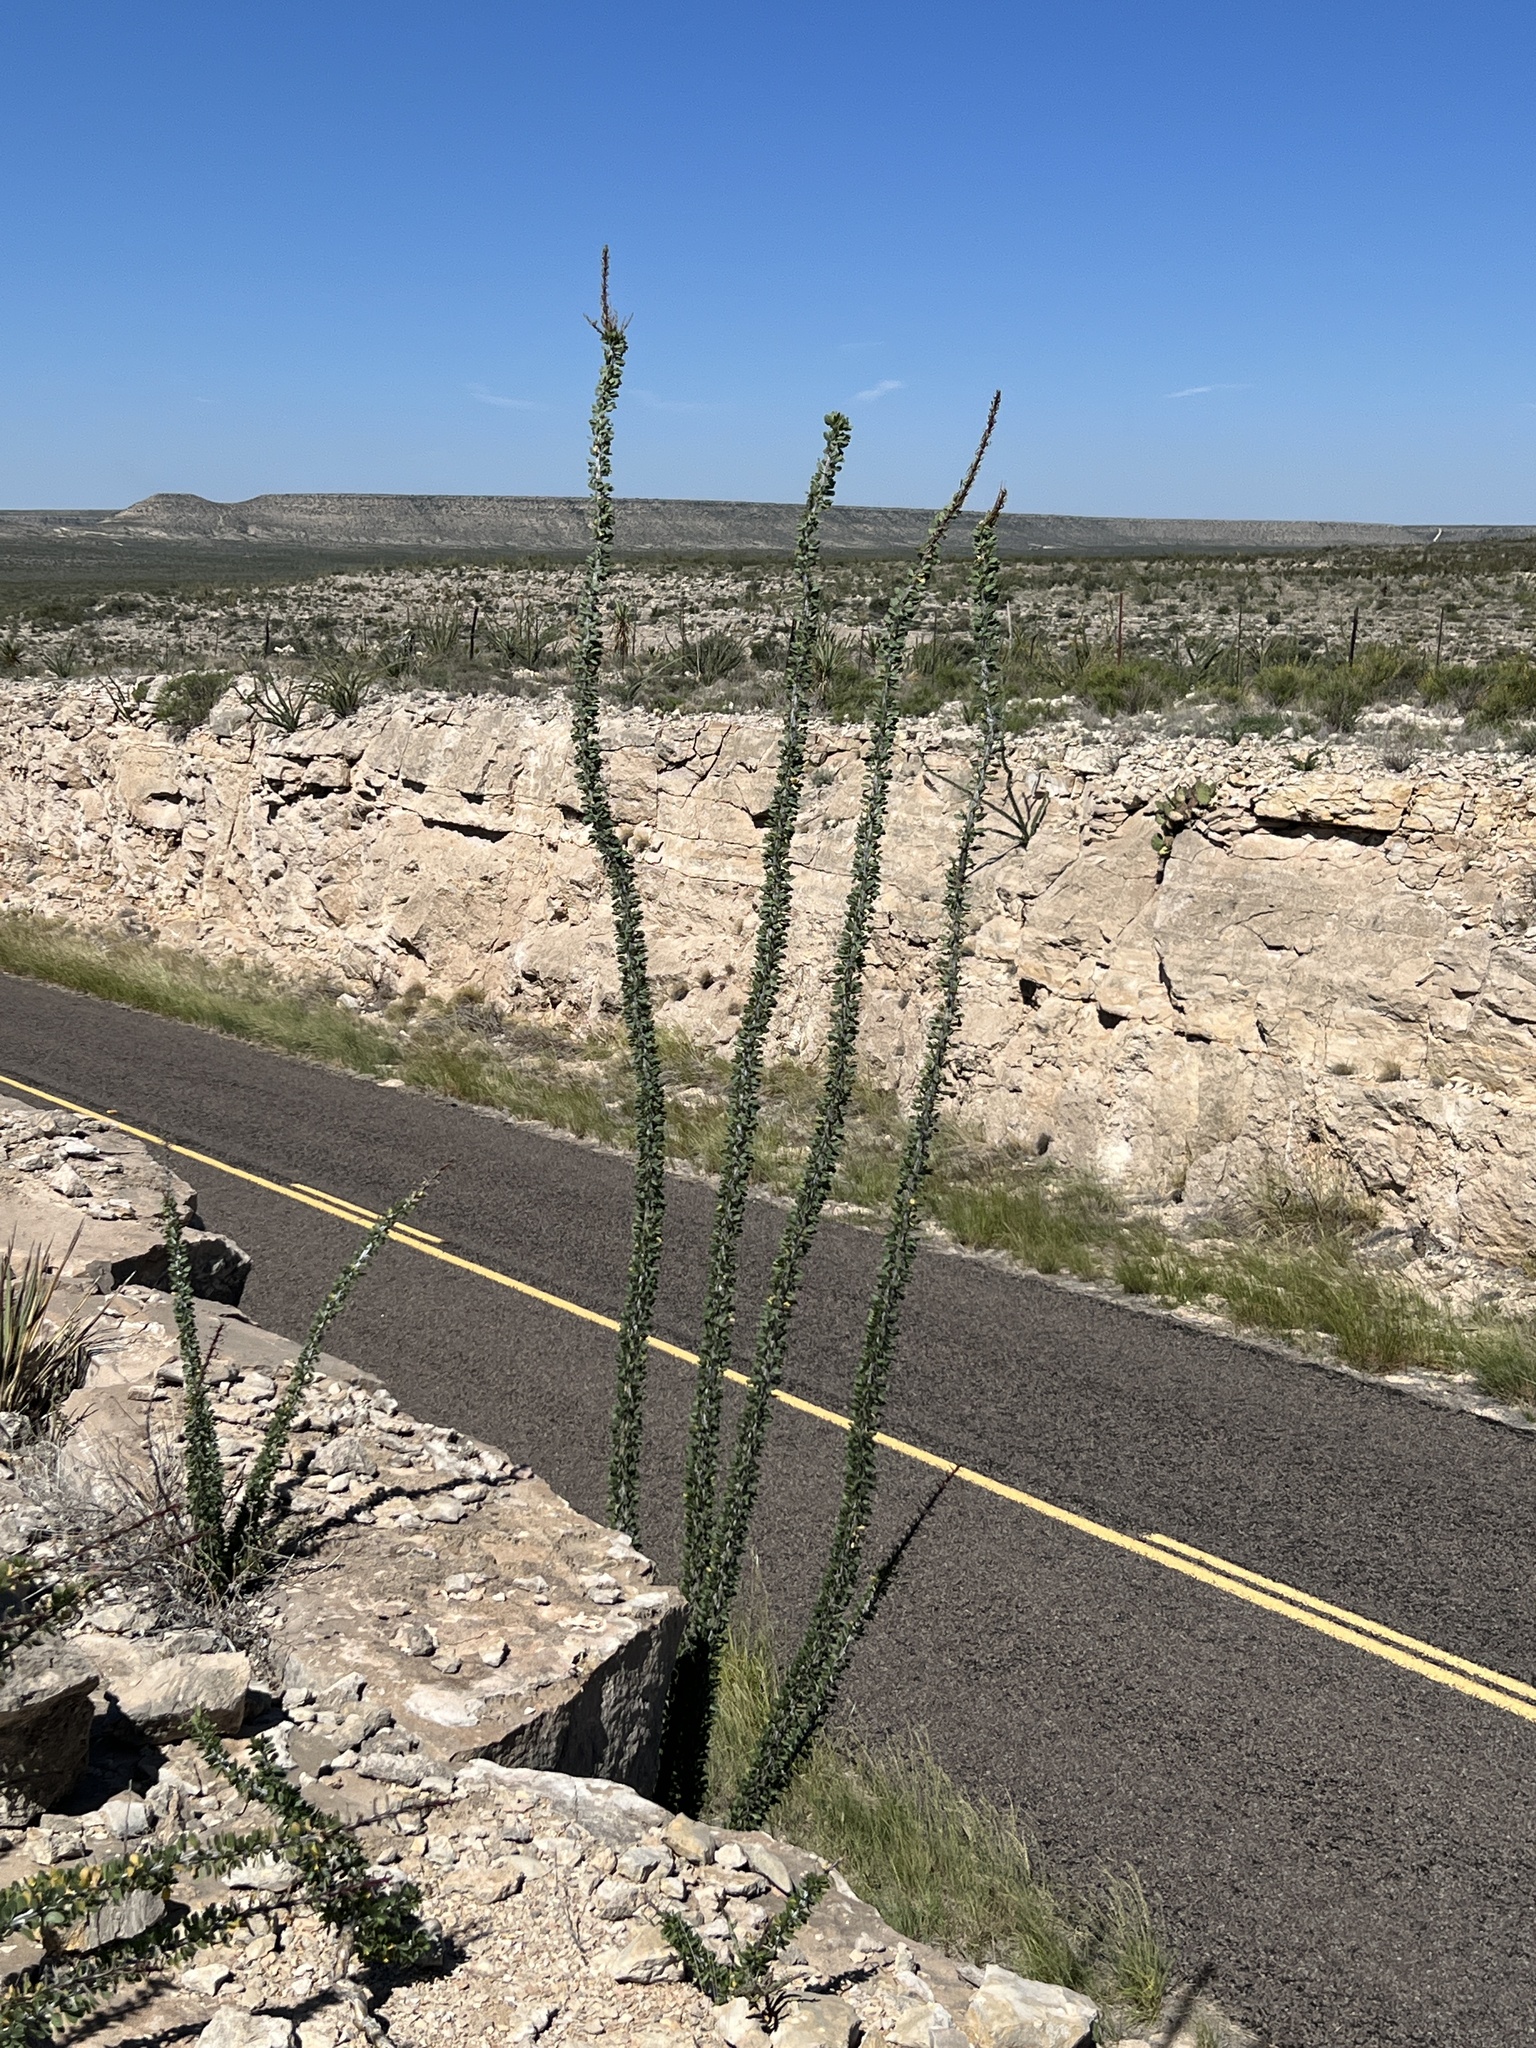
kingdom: Plantae
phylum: Tracheophyta
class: Magnoliopsida
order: Ericales
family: Fouquieriaceae
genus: Fouquieria
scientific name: Fouquieria splendens
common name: Vine-cactus
